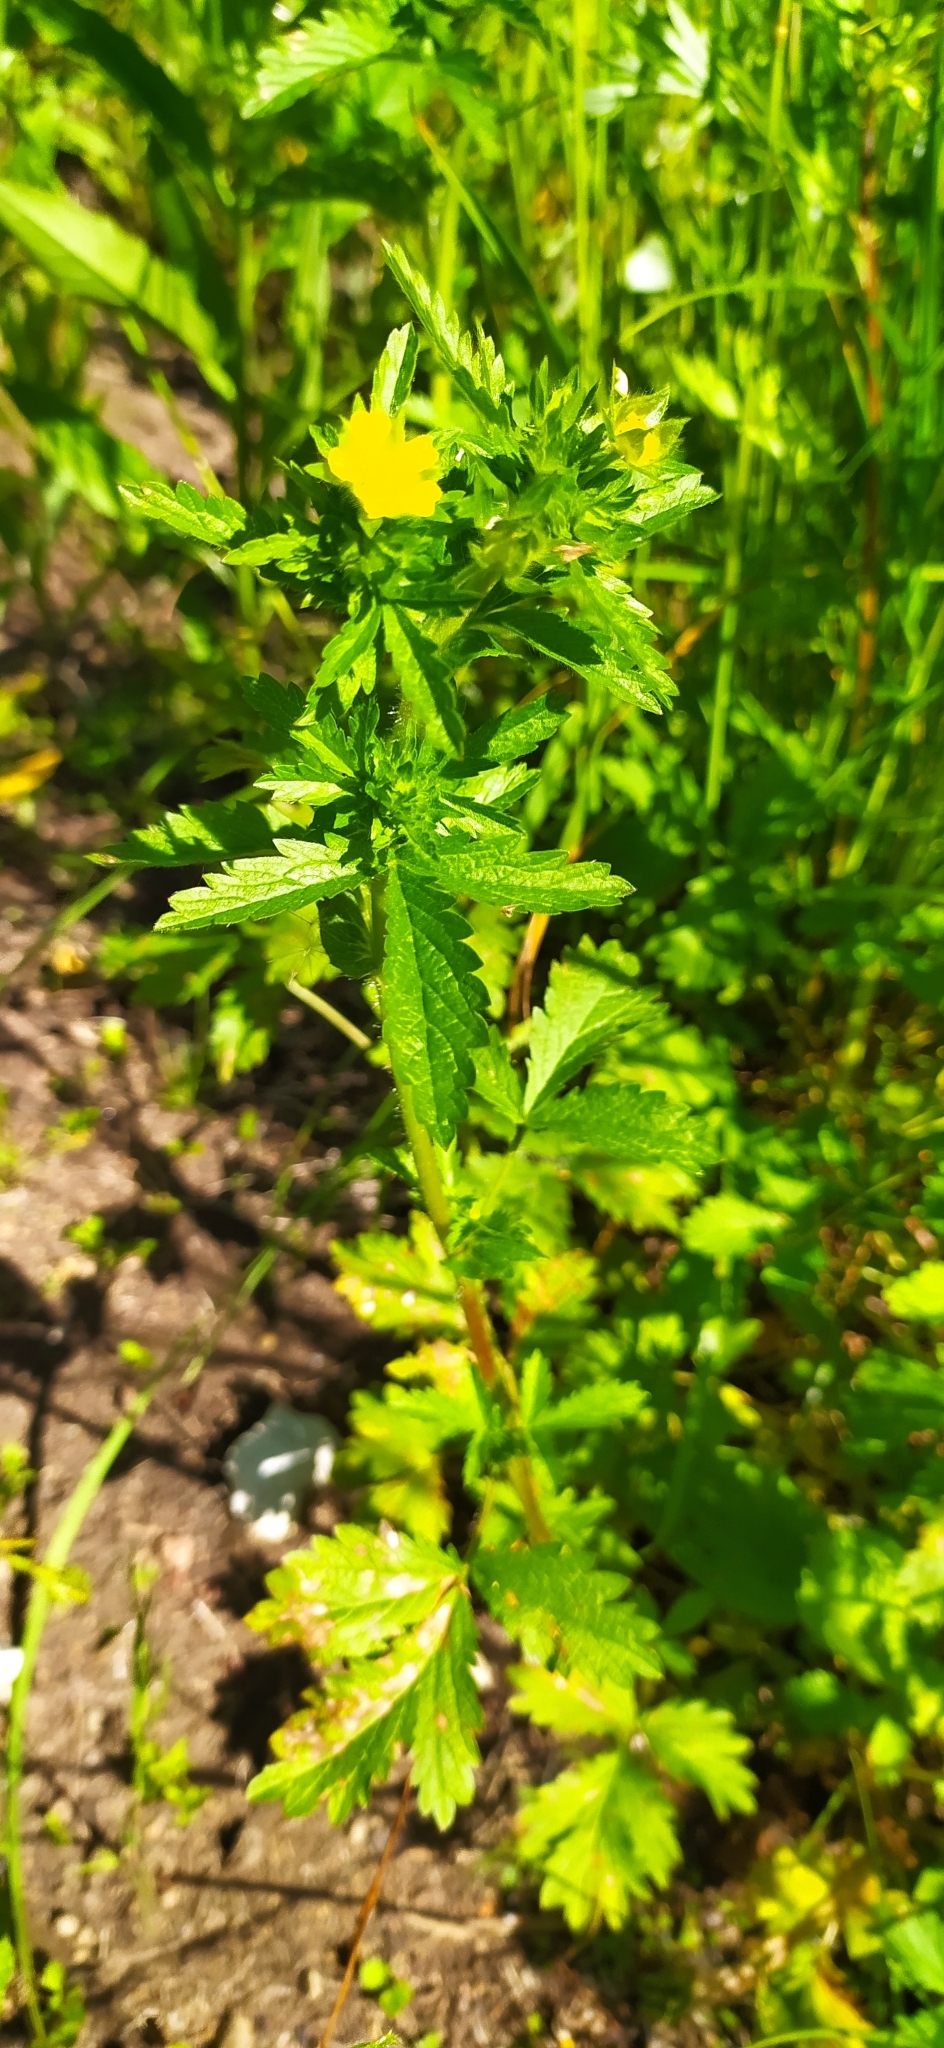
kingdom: Plantae
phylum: Tracheophyta
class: Magnoliopsida
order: Rosales
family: Rosaceae
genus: Potentilla
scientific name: Potentilla norvegica
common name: Ternate-leaved cinquefoil
